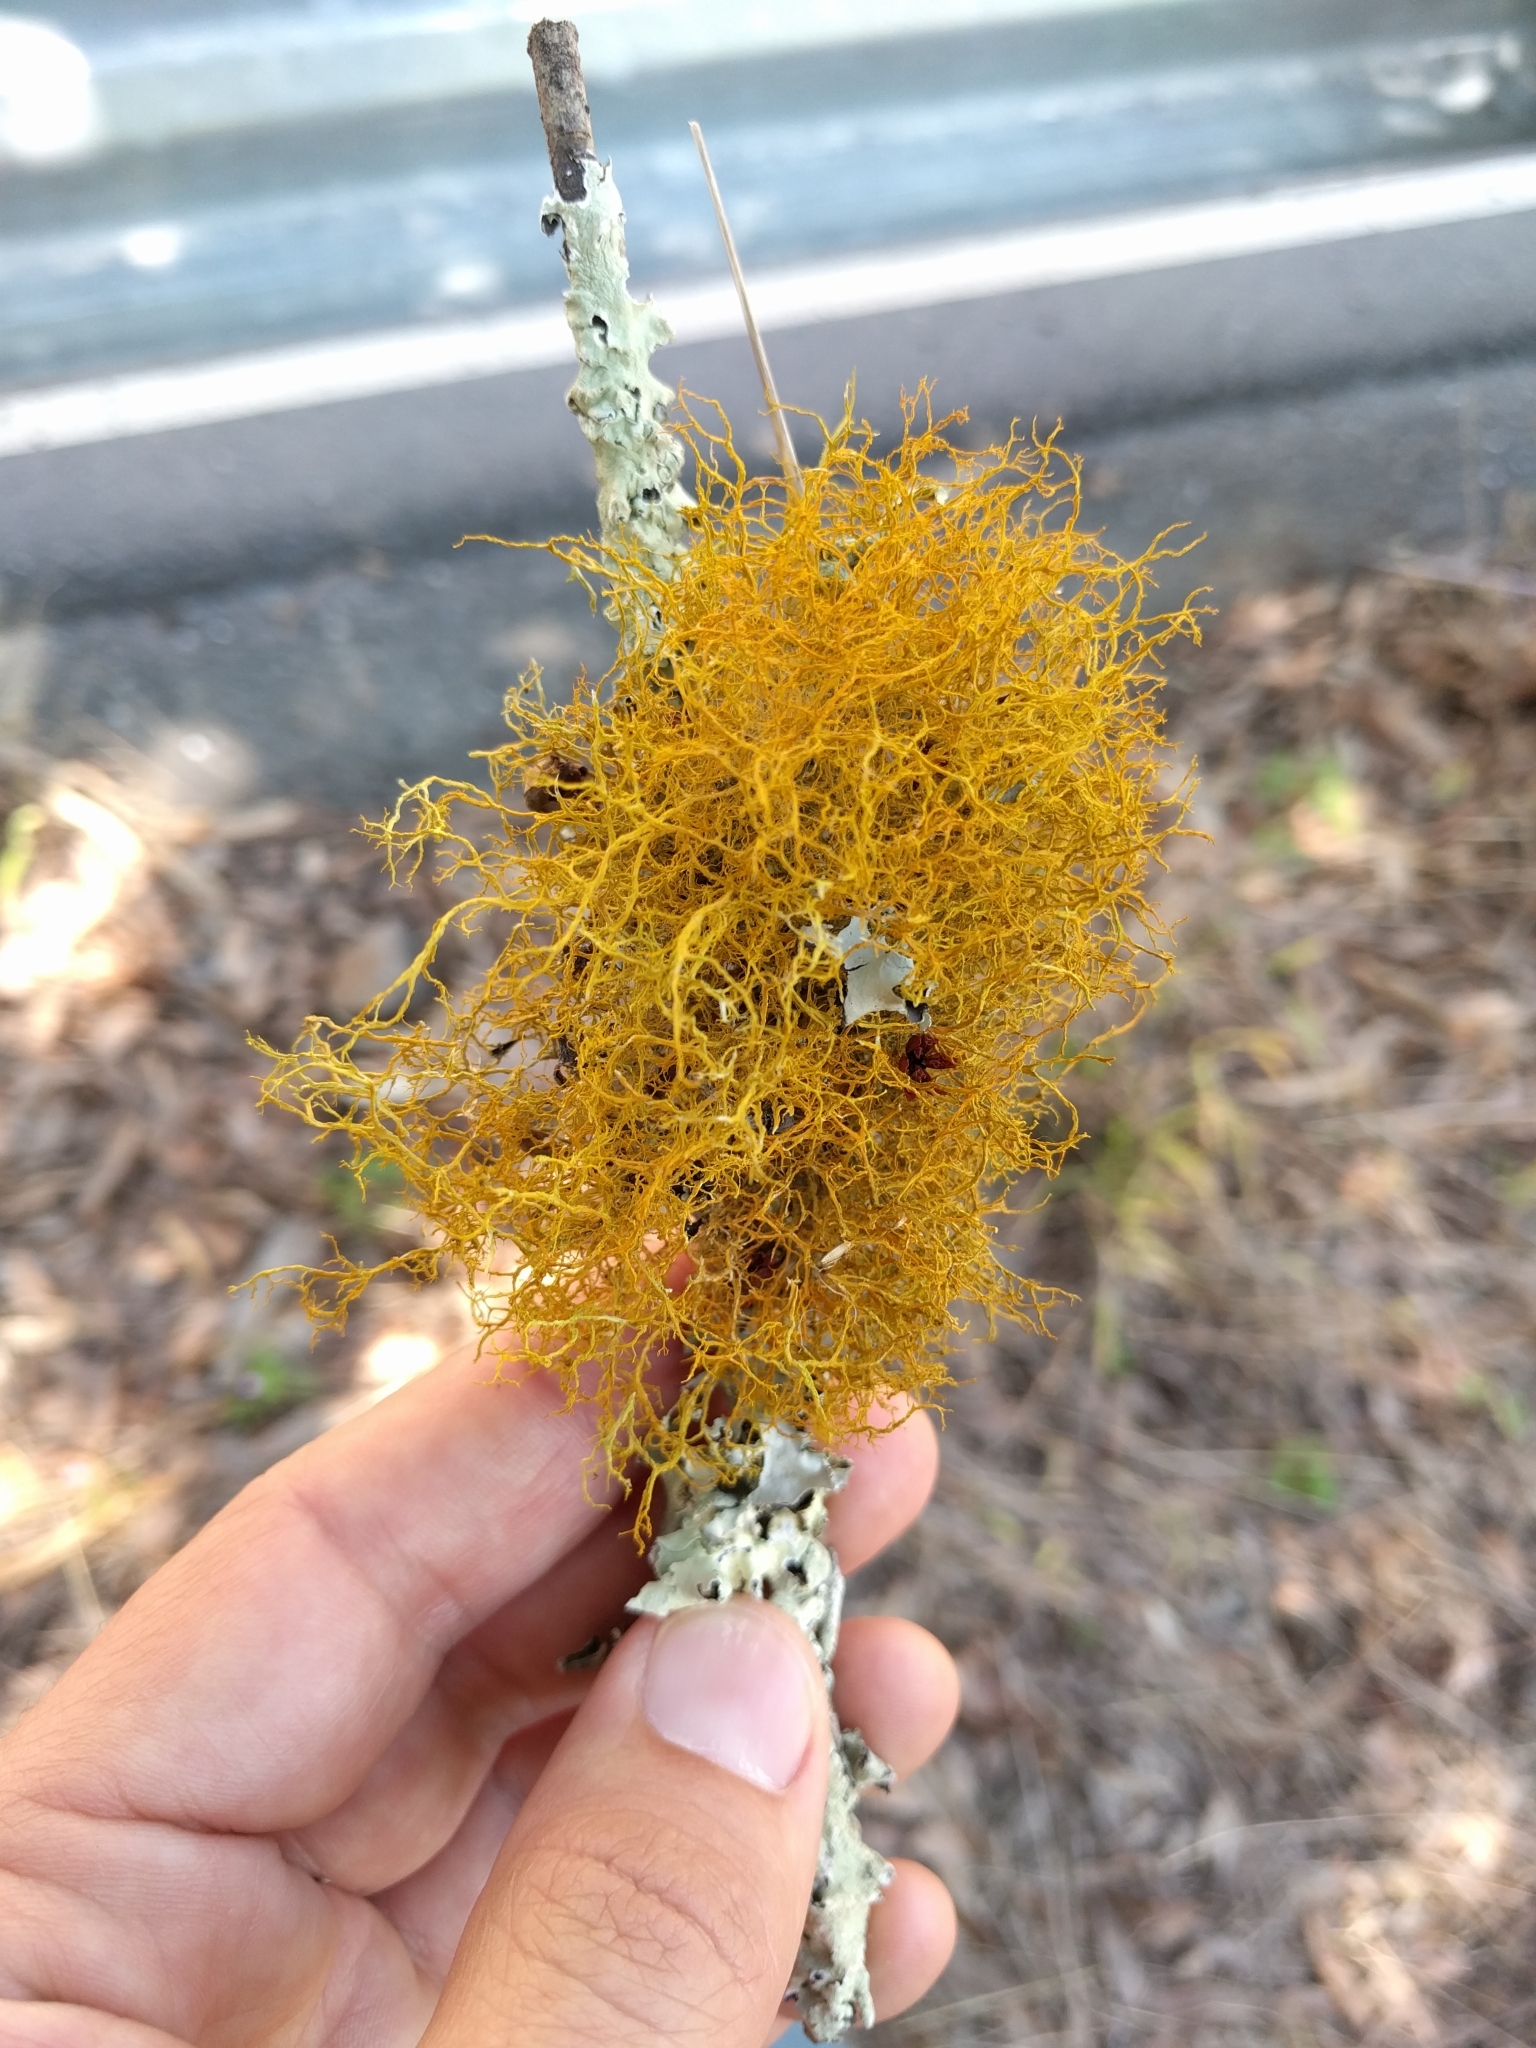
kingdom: Fungi
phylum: Ascomycota
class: Lecanoromycetes
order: Teloschistales
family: Teloschistaceae
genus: Teloschistes
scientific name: Teloschistes flavicans
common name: Golden hair-lichen
